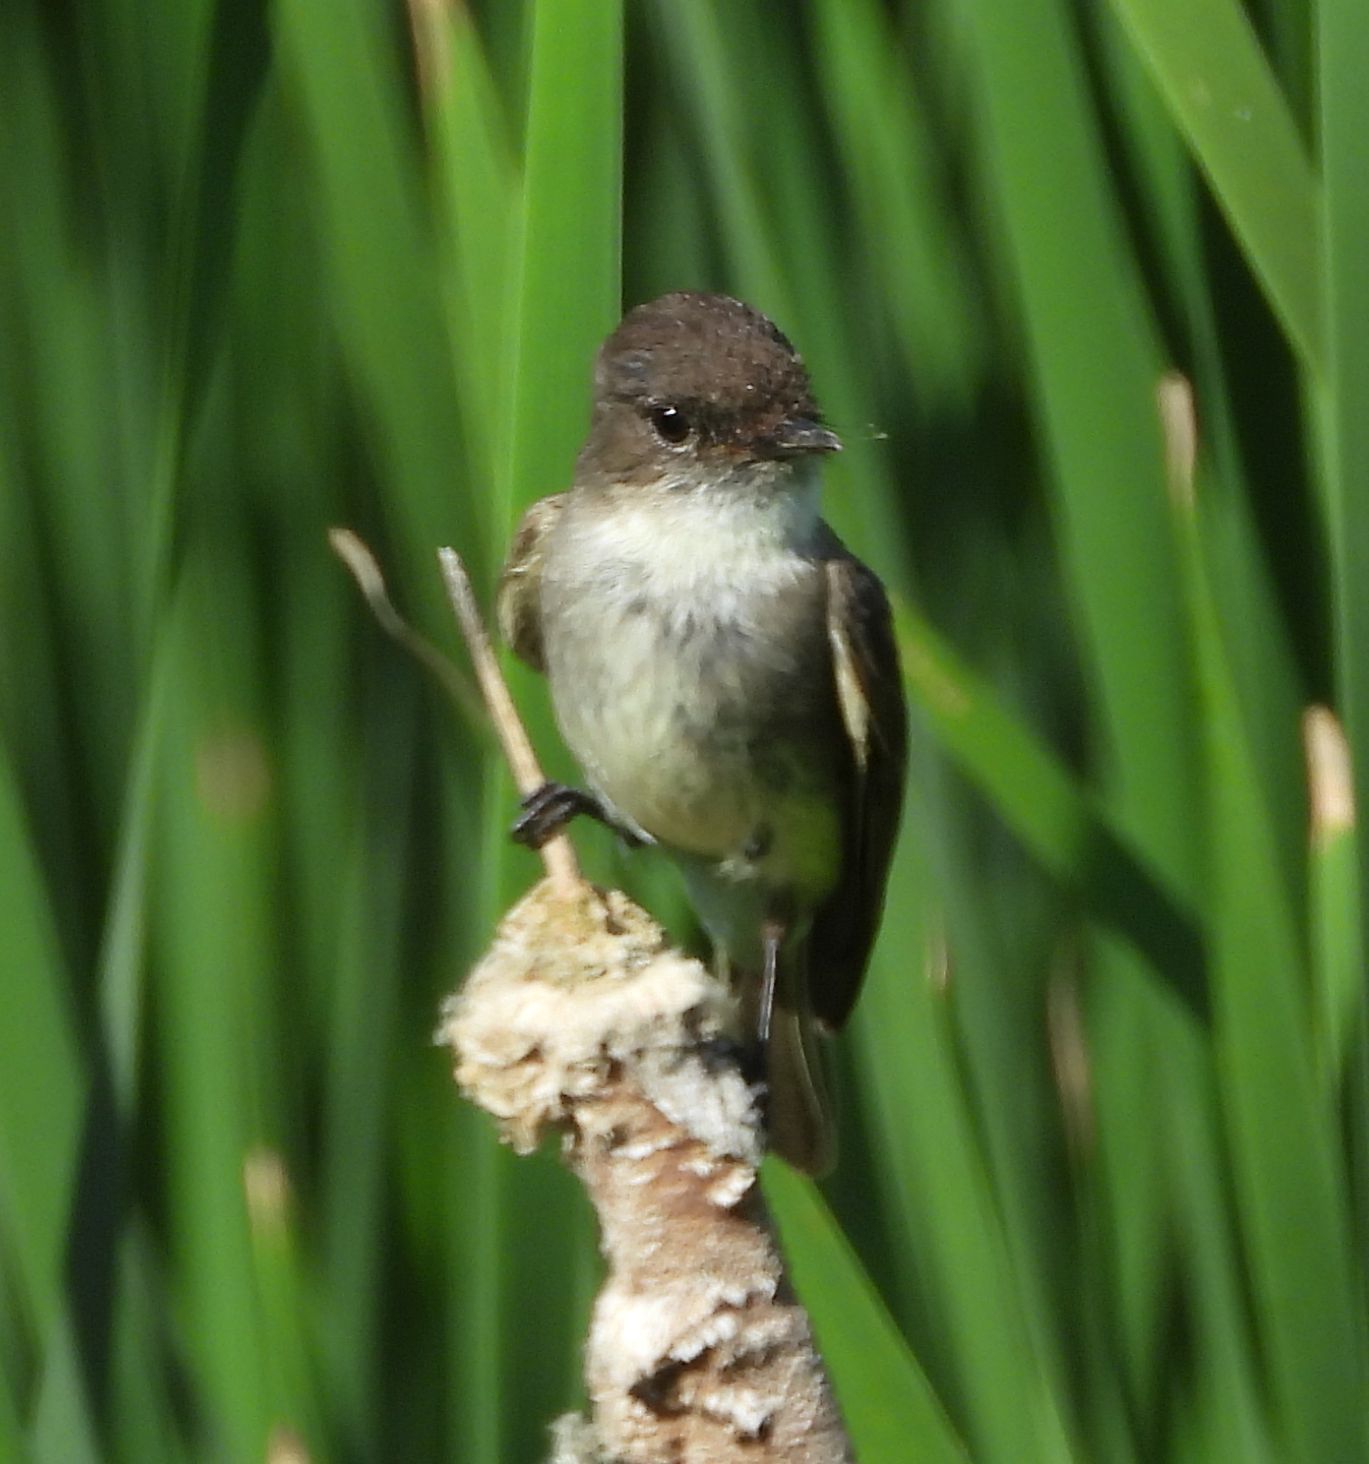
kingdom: Animalia
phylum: Chordata
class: Aves
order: Passeriformes
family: Tyrannidae
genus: Sayornis
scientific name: Sayornis phoebe
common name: Eastern phoebe
